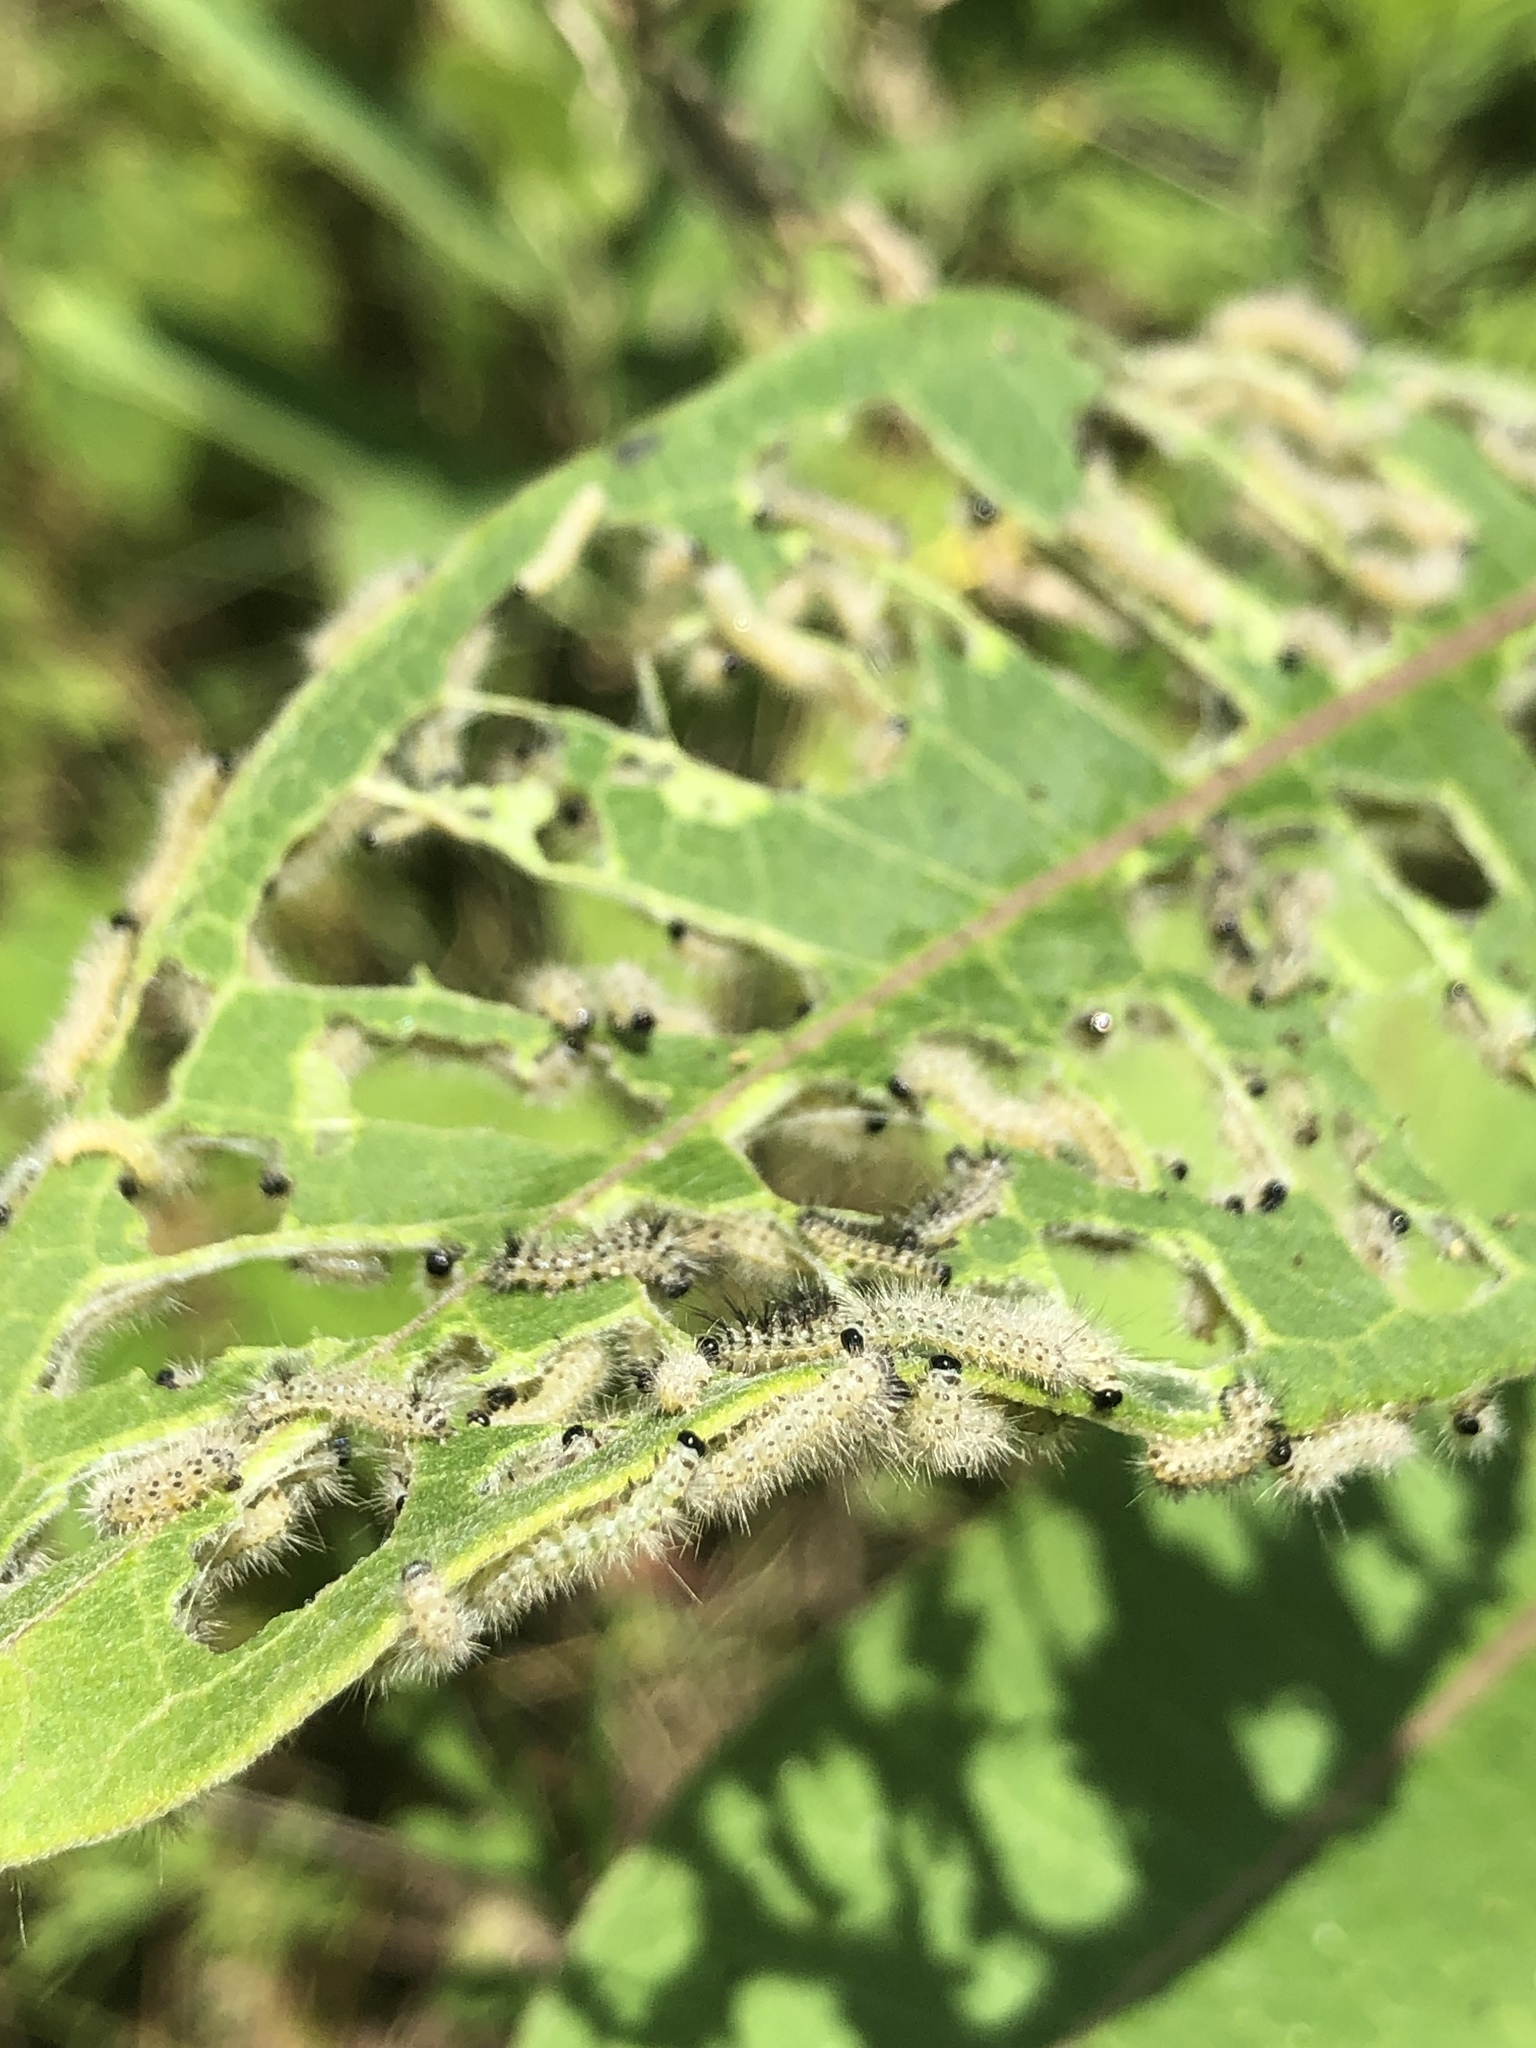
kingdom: Animalia
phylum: Arthropoda
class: Insecta
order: Lepidoptera
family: Erebidae
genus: Euchaetes
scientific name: Euchaetes egle
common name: Milkweed tussock moth
